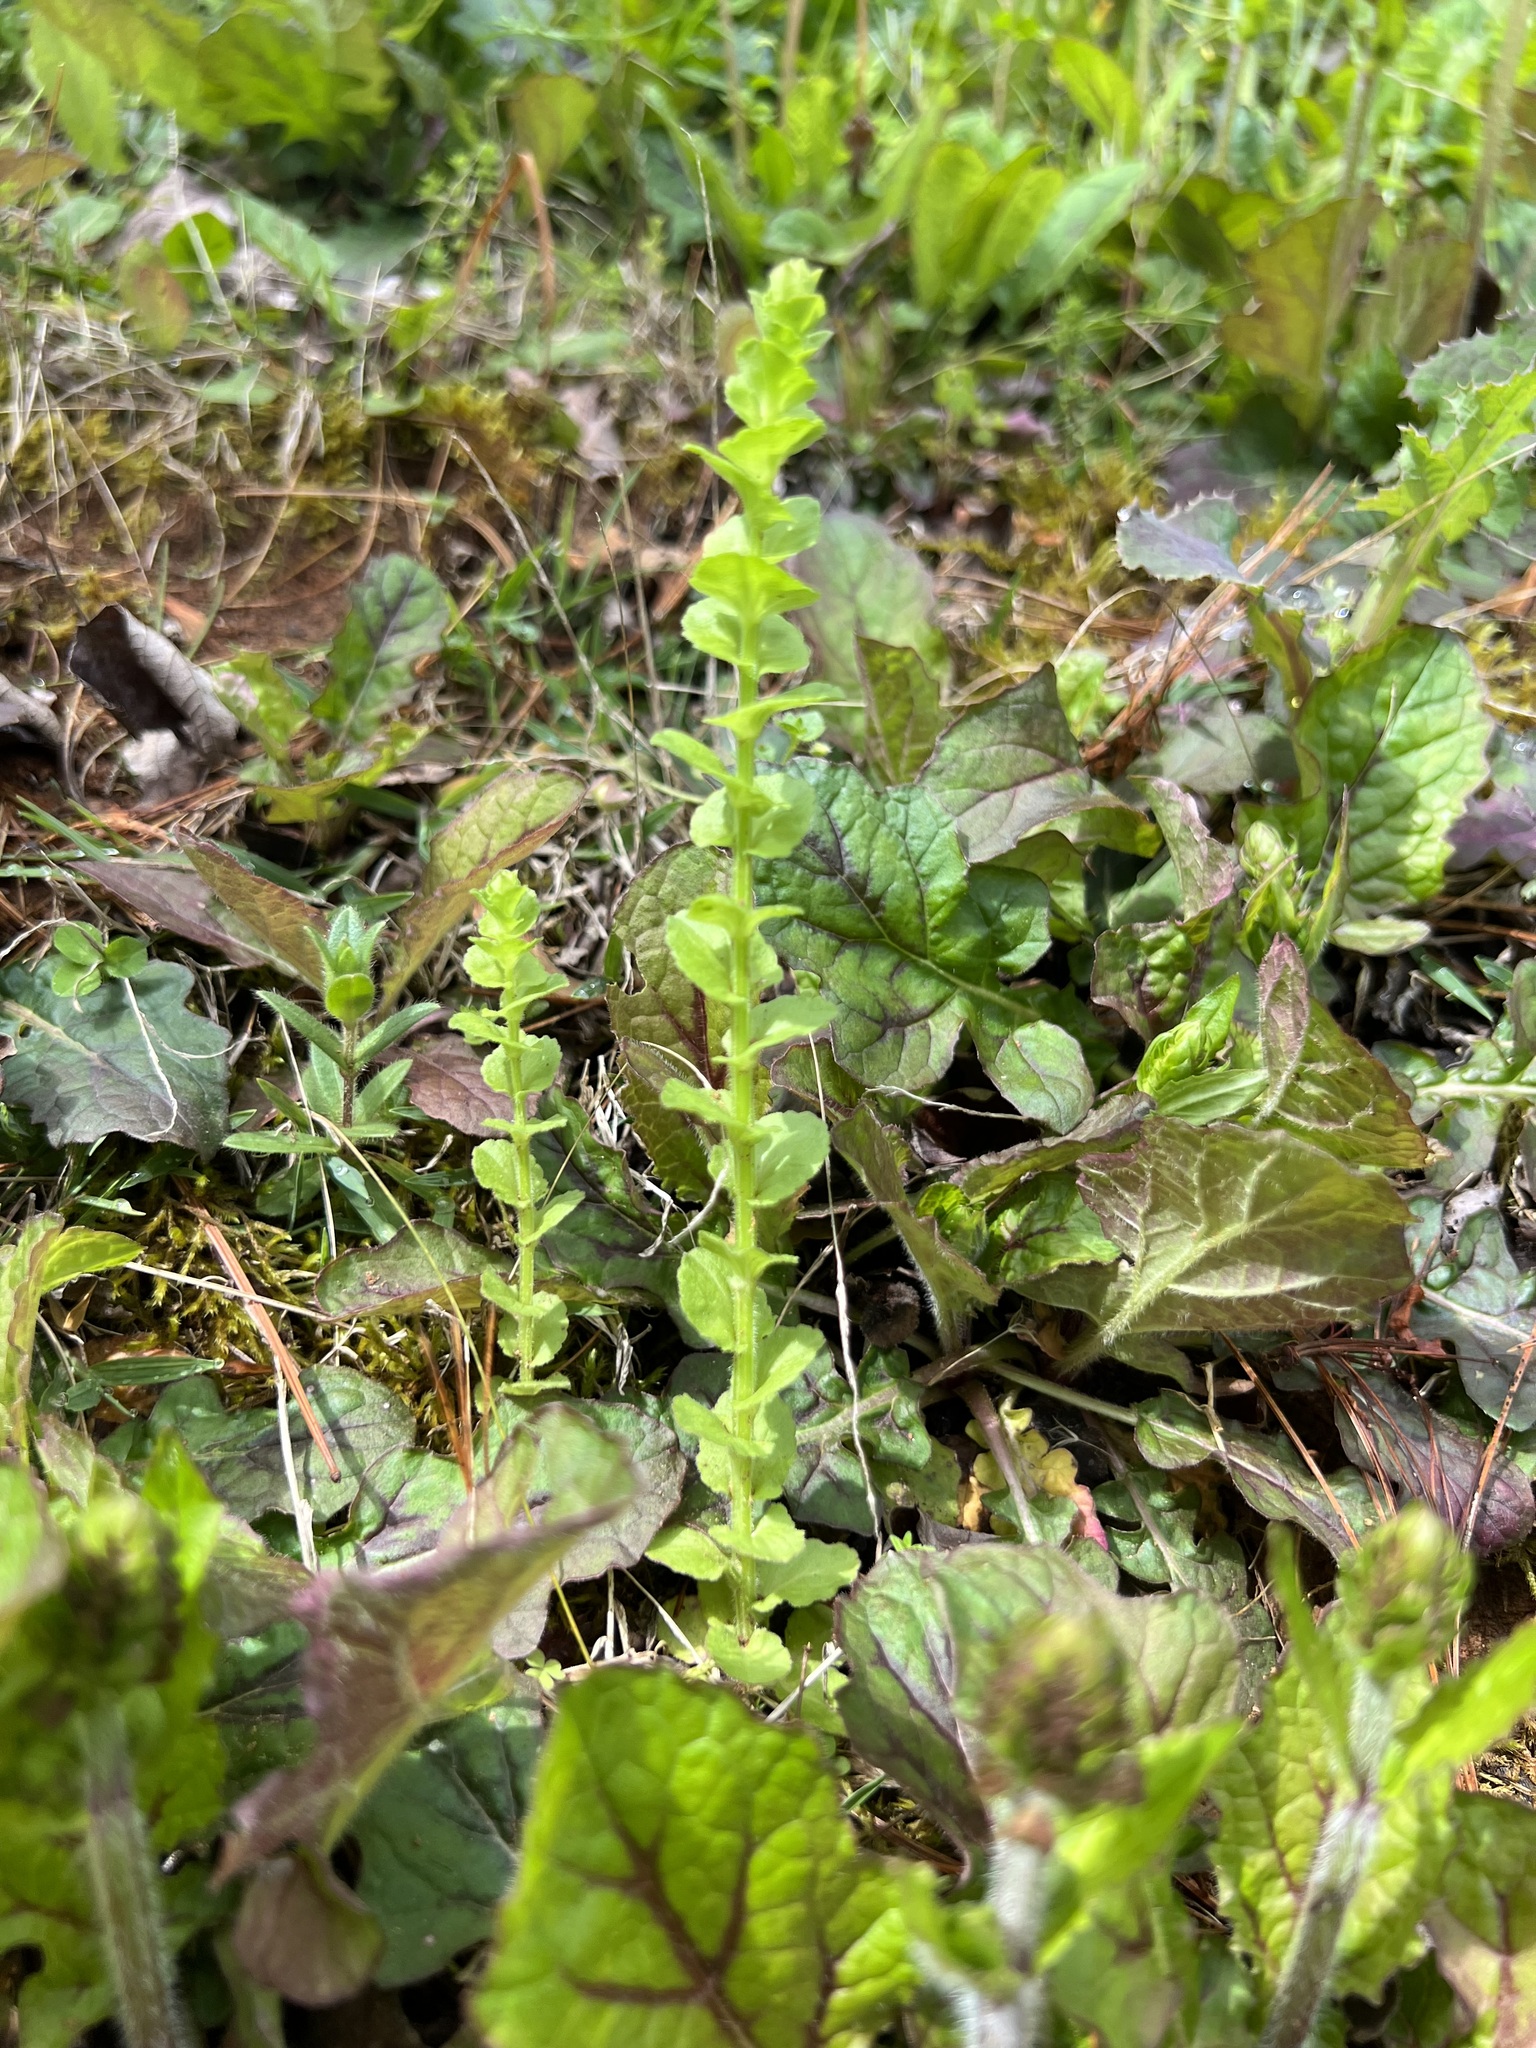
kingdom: Plantae
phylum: Tracheophyta
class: Magnoliopsida
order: Asterales
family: Campanulaceae
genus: Triodanis
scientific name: Triodanis perfoliata
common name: Clasping venus' looking-glass
